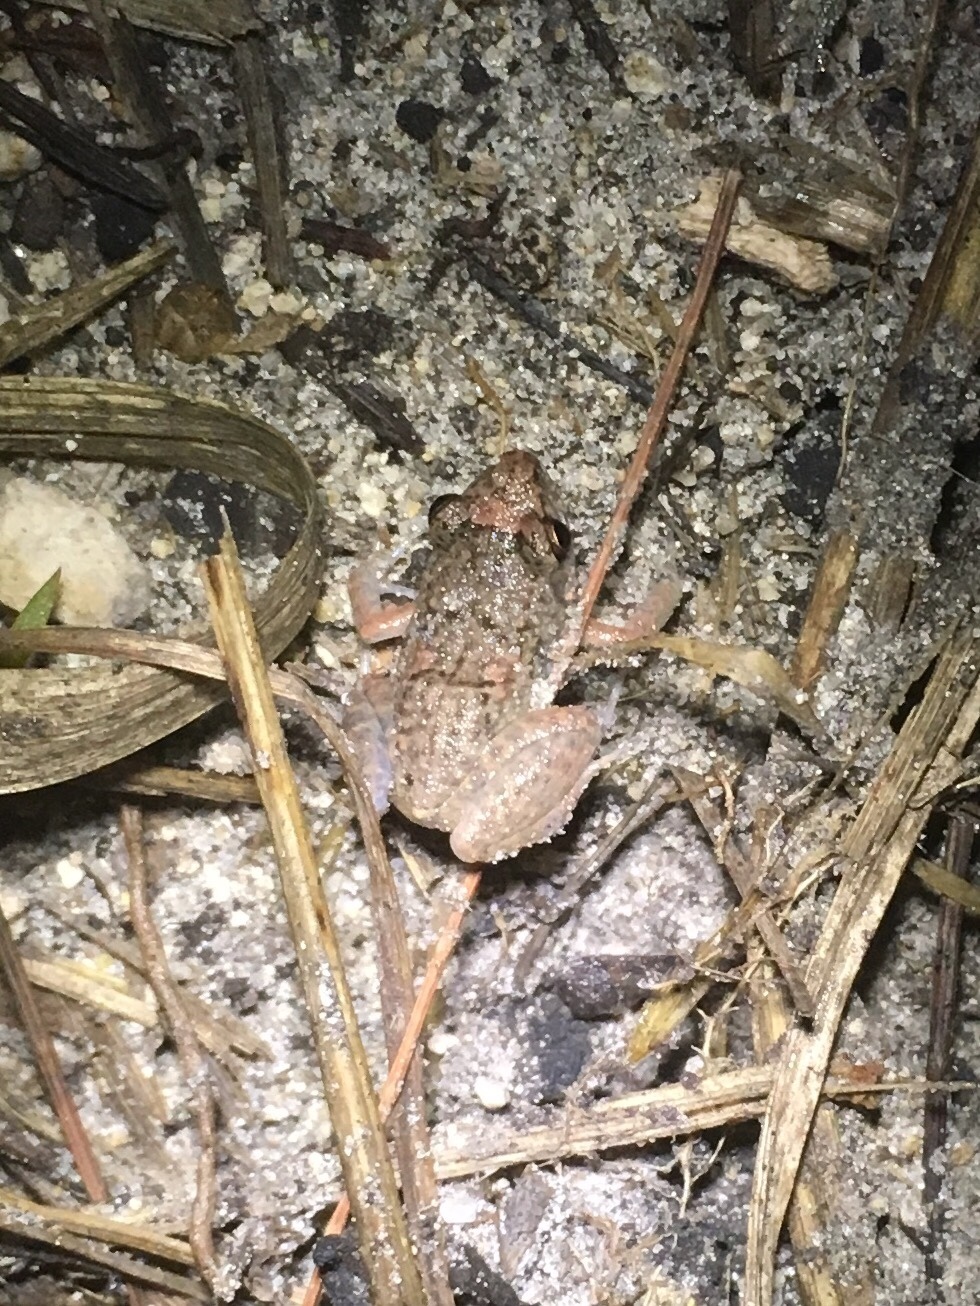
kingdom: Animalia
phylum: Chordata
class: Amphibia
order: Anura
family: Eleutherodactylidae
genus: Eleutherodactylus
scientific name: Eleutherodactylus planirostris
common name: Greenhouse frog
